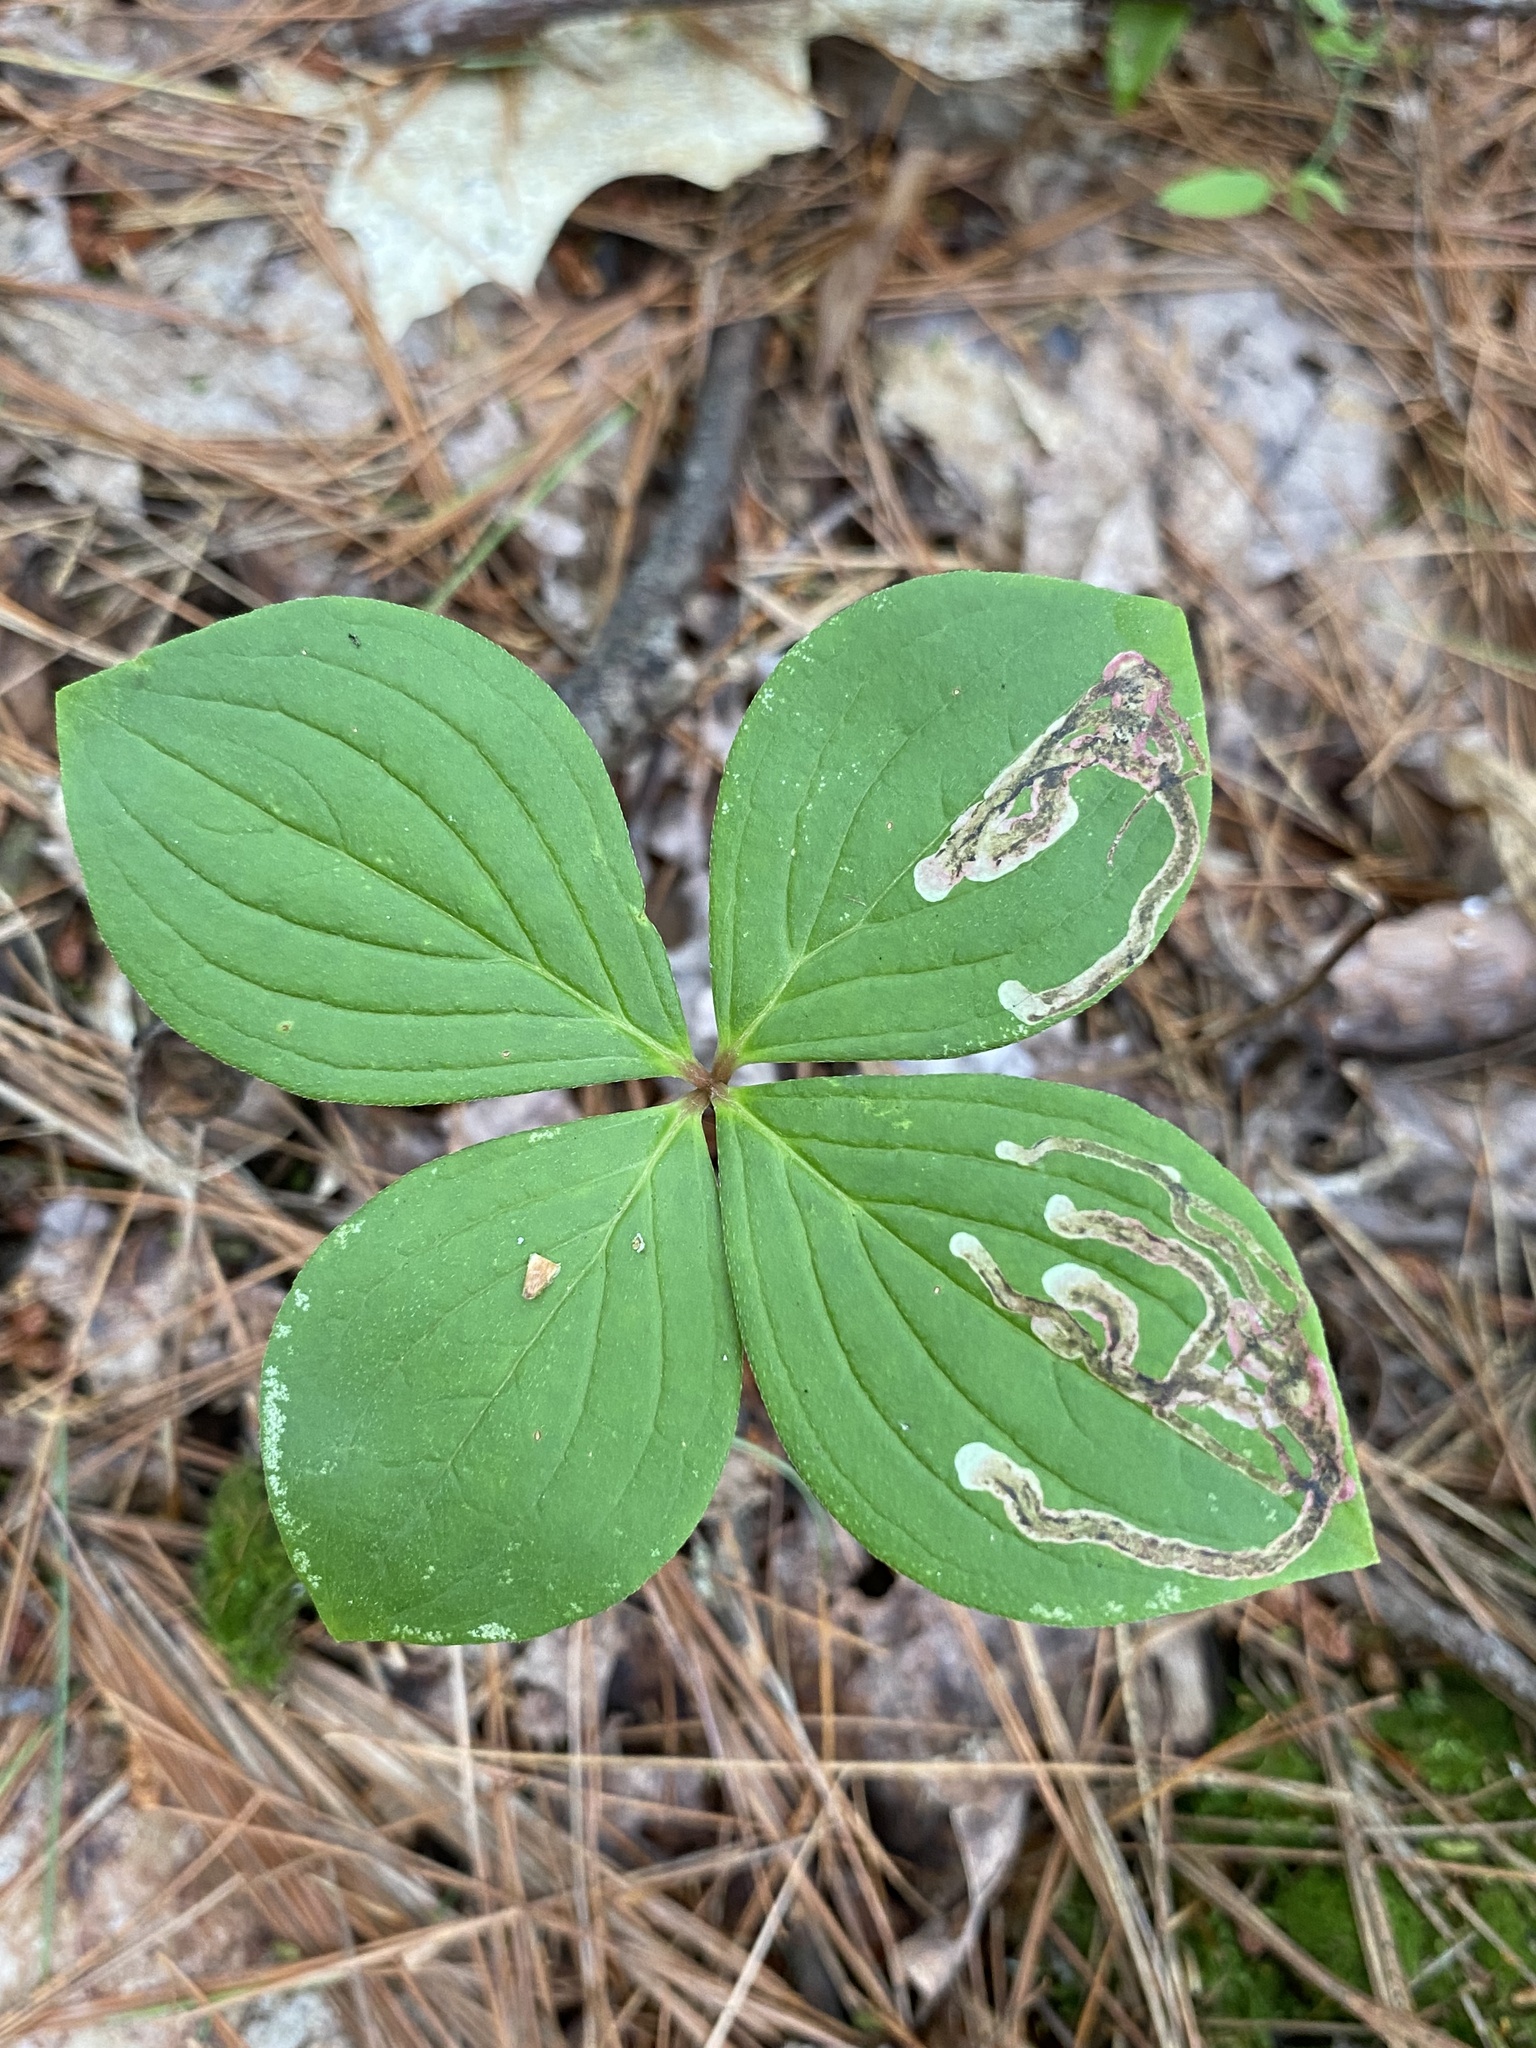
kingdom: Animalia
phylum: Arthropoda
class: Insecta
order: Diptera
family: Agromyzidae
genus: Phytomyza
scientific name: Phytomyza agromyzina
